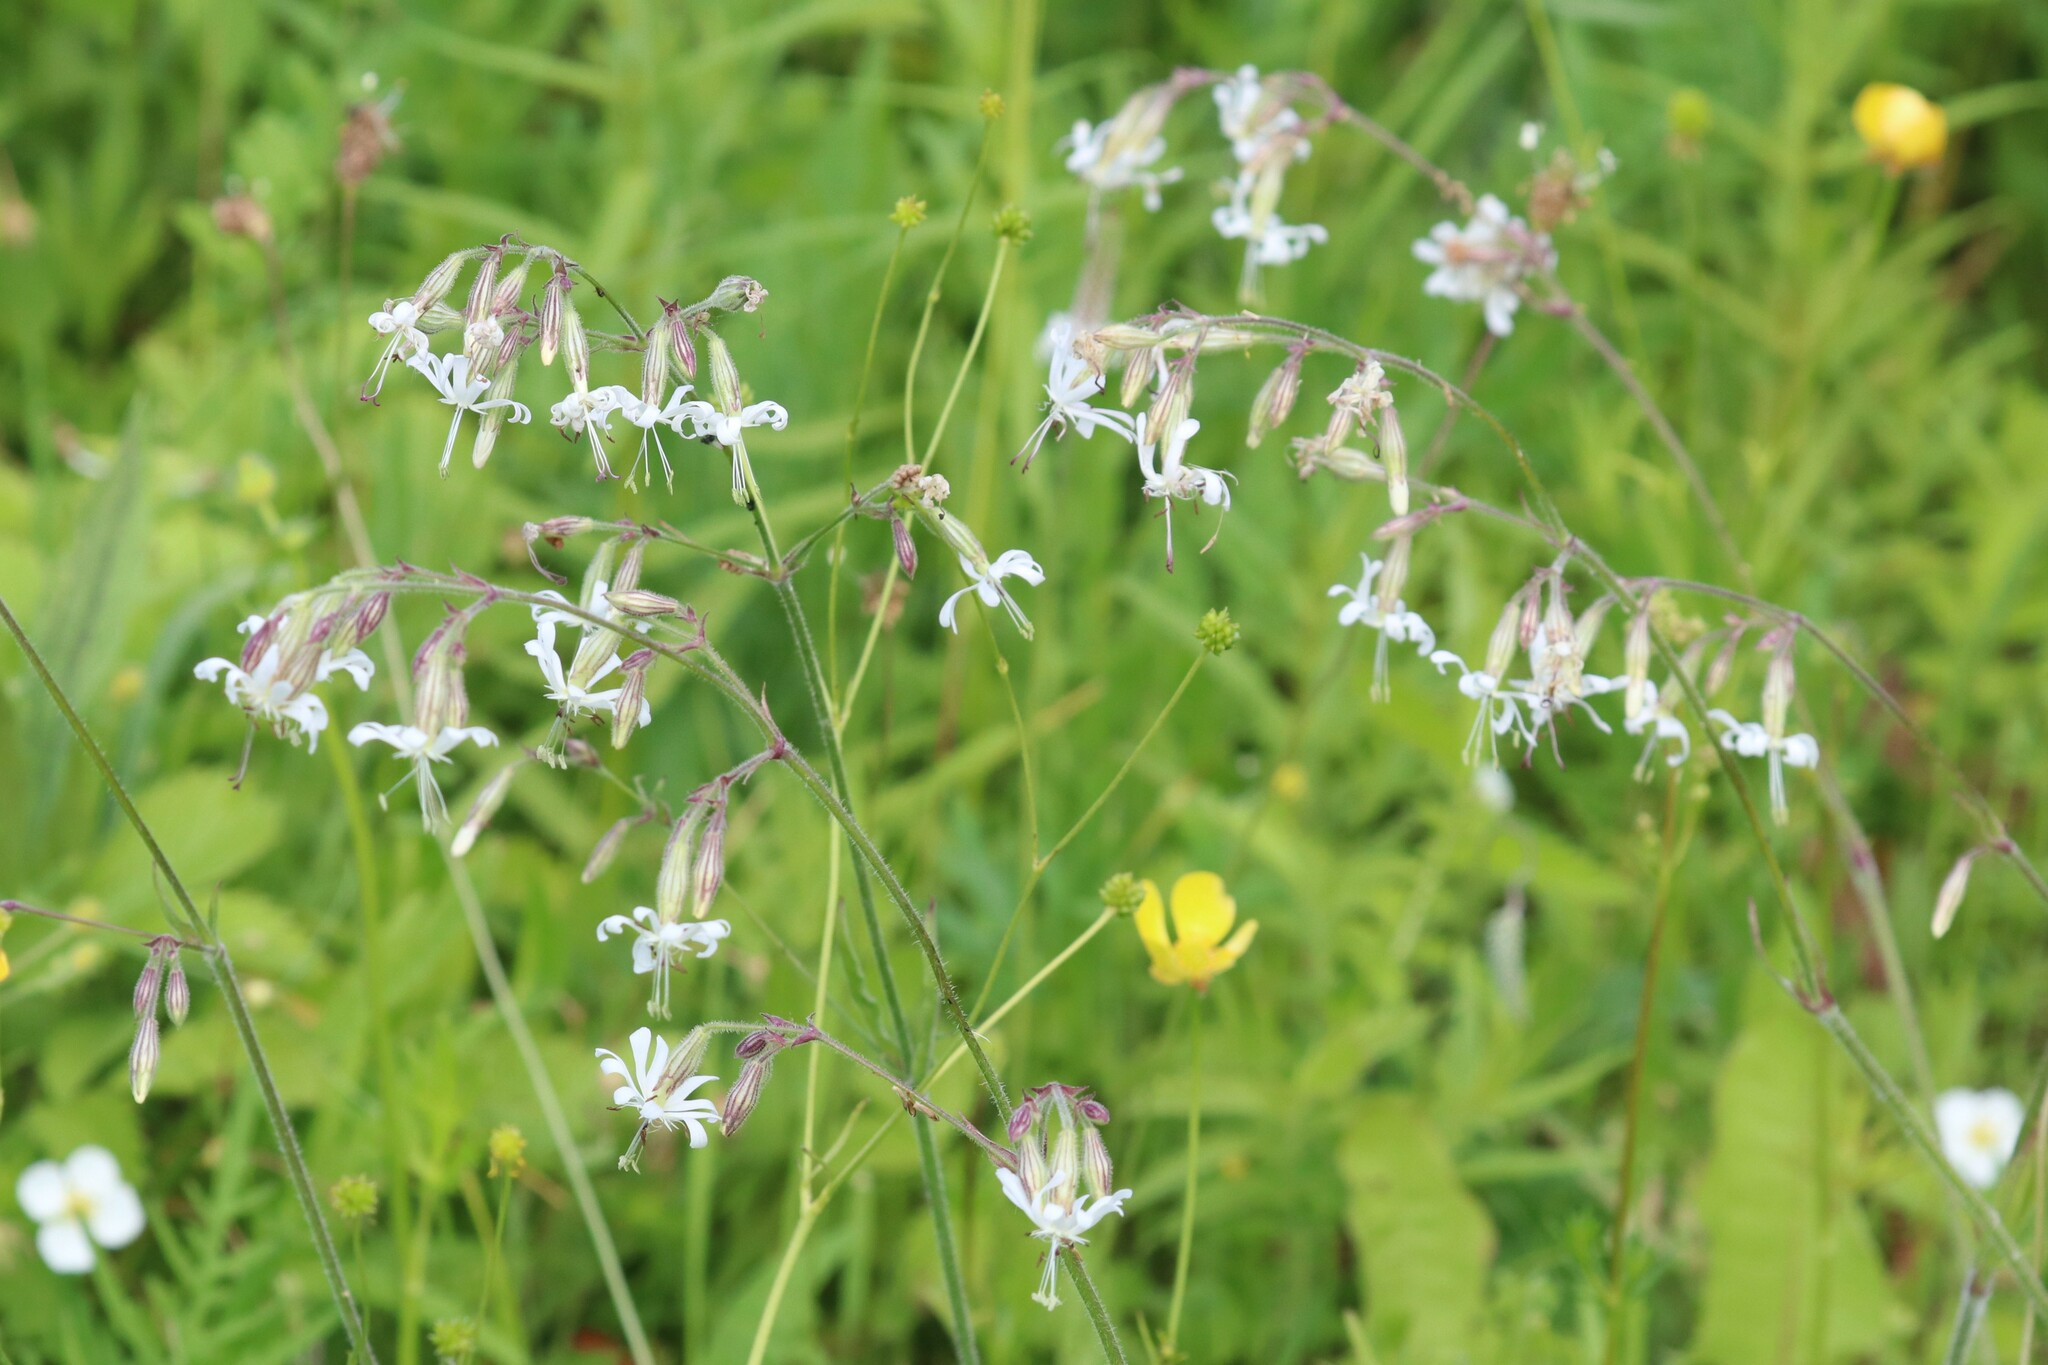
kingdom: Plantae
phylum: Tracheophyta
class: Magnoliopsida
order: Caryophyllales
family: Caryophyllaceae
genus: Silene
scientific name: Silene nutans
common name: Nottingham catchfly
